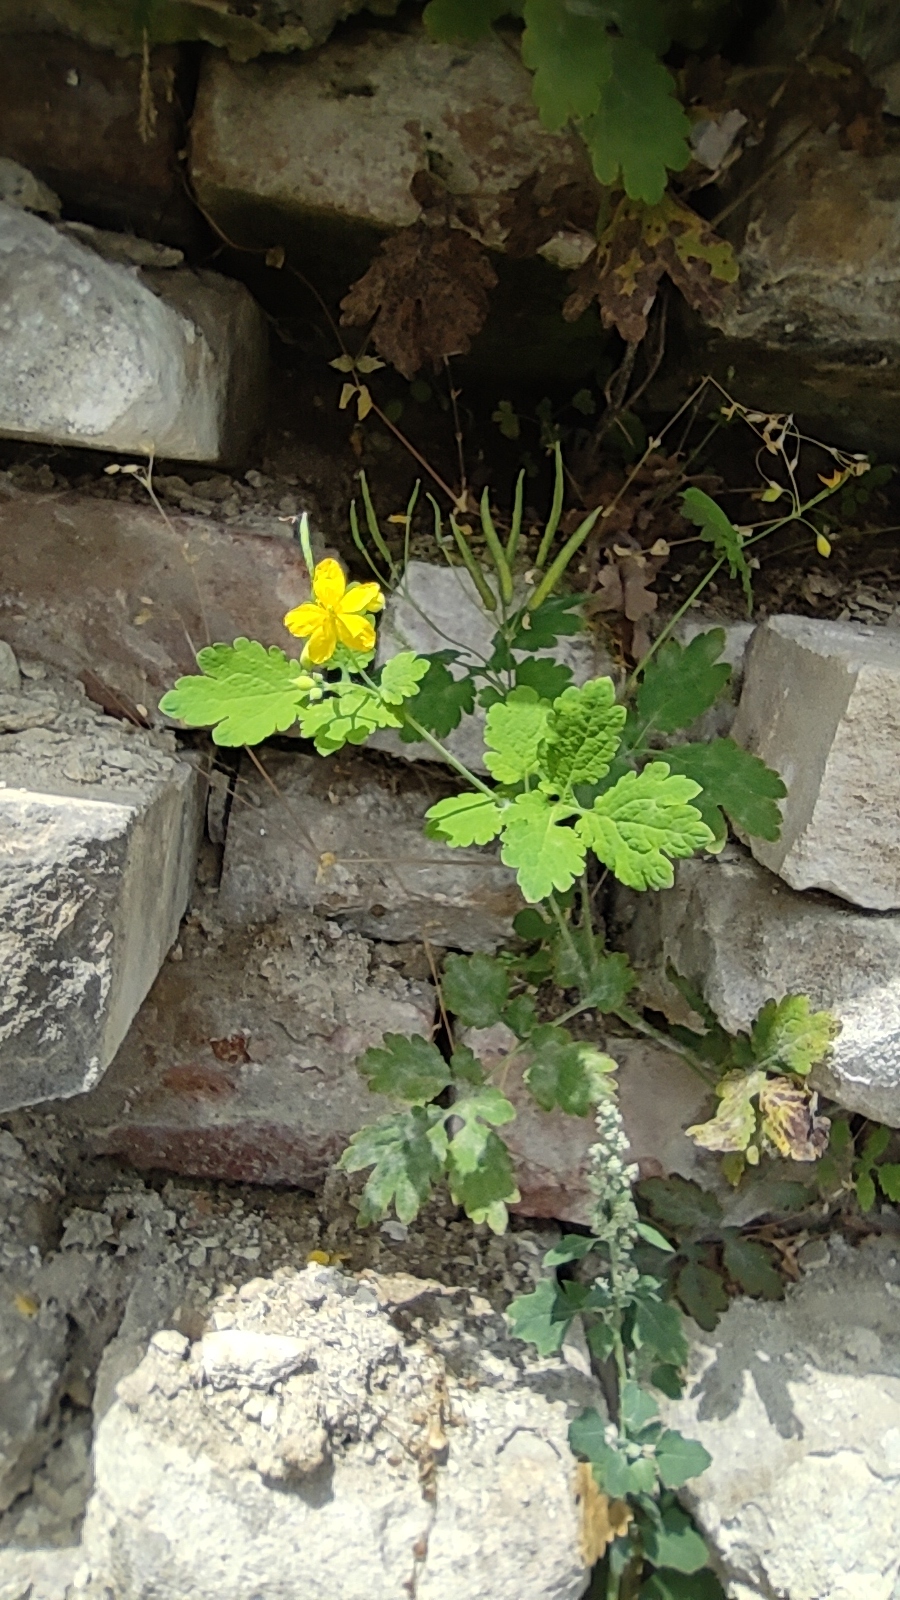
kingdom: Plantae
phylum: Tracheophyta
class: Magnoliopsida
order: Ranunculales
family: Papaveraceae
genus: Chelidonium
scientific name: Chelidonium majus
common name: Greater celandine
